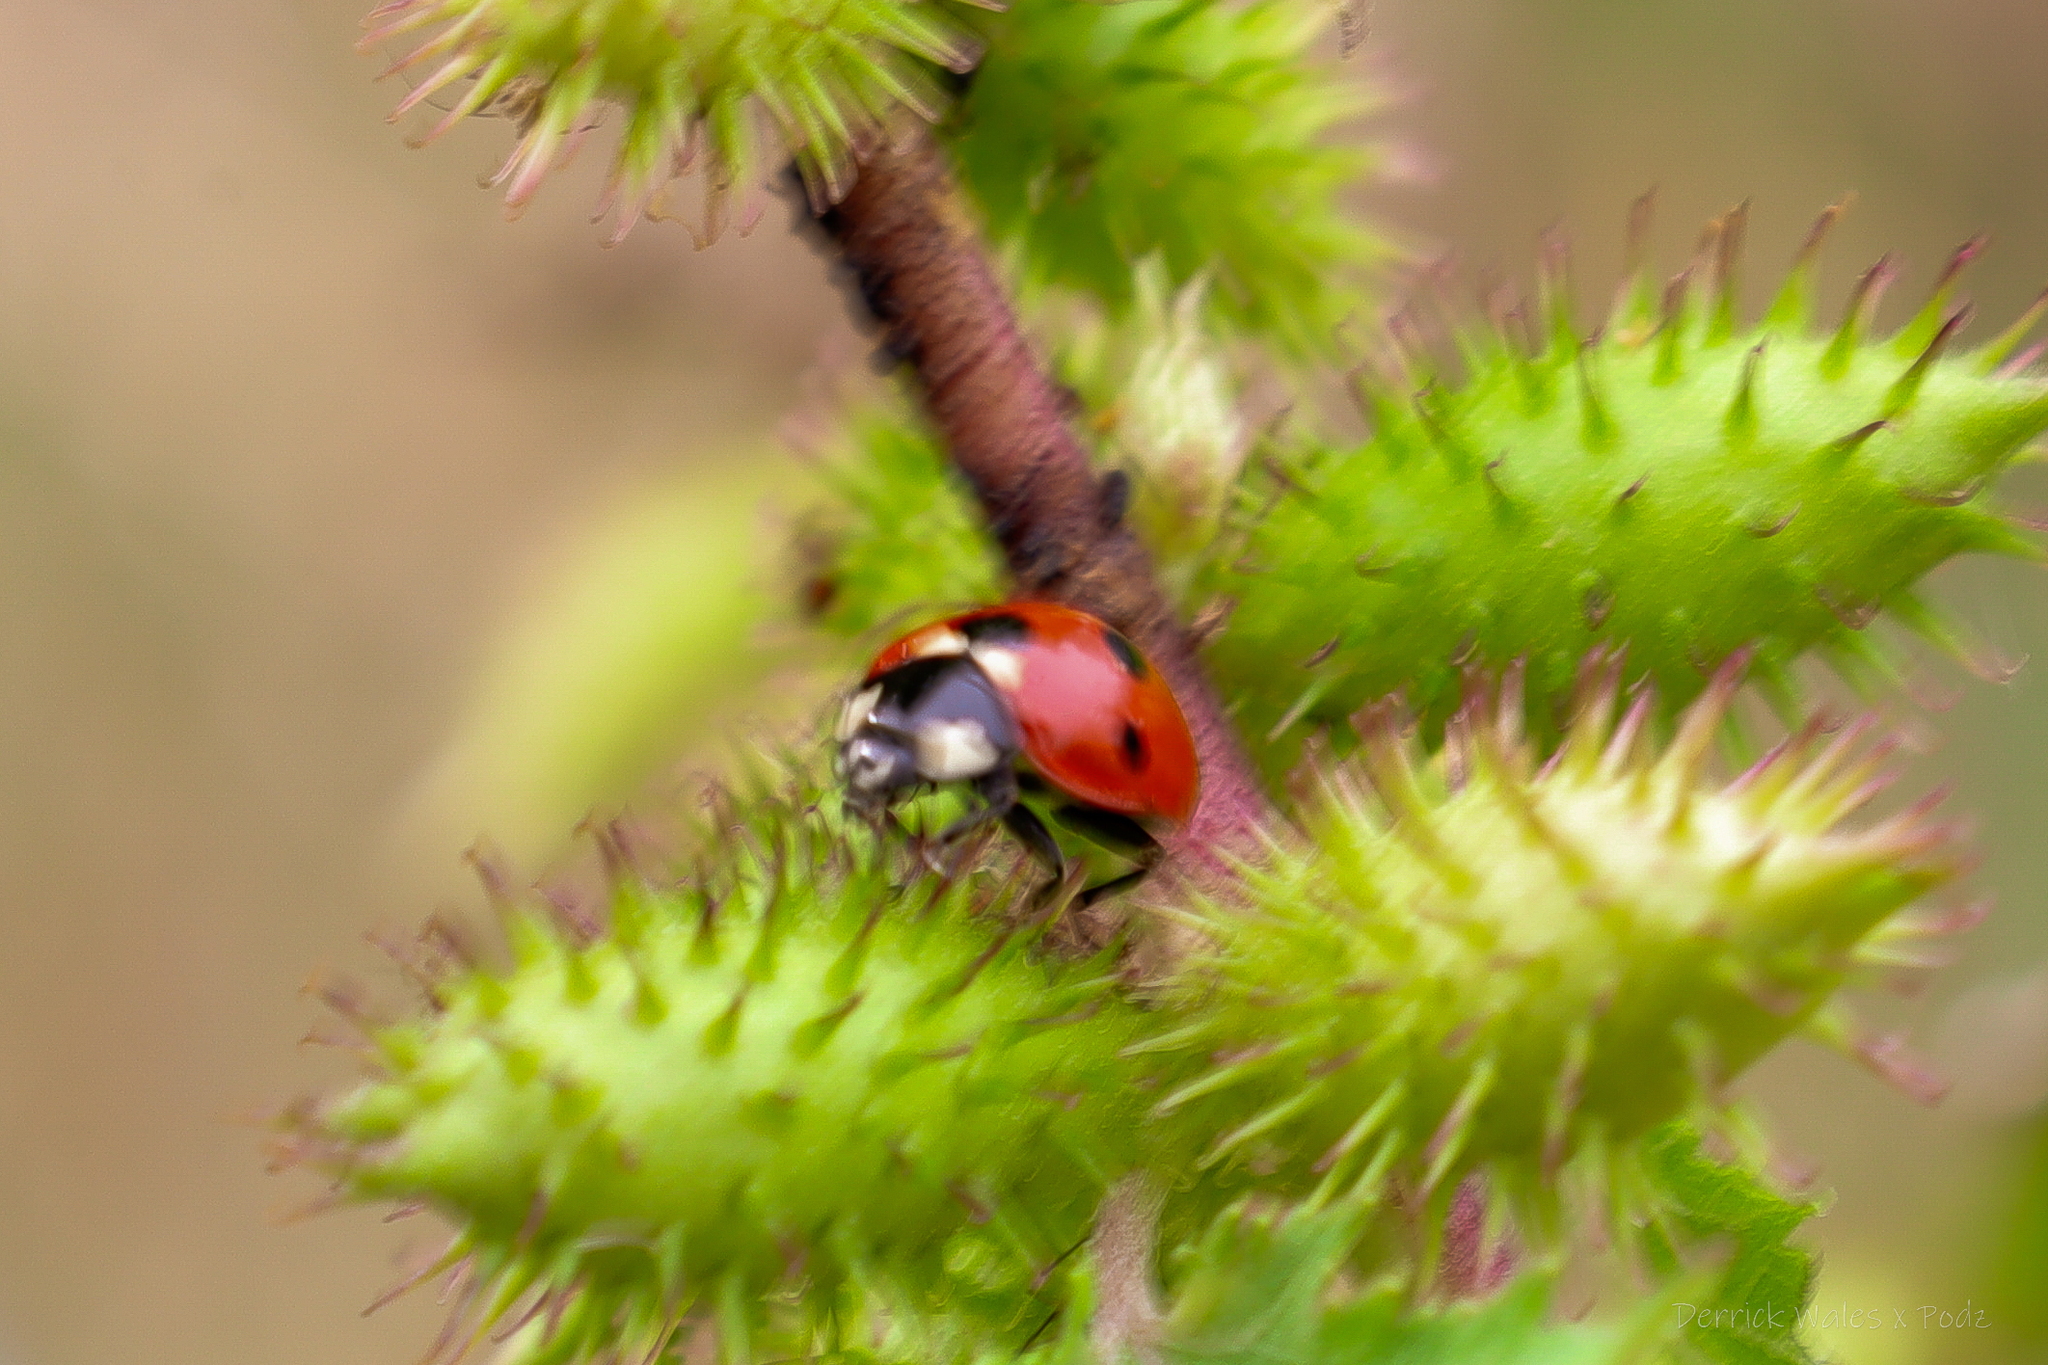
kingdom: Animalia
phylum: Arthropoda
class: Insecta
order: Coleoptera
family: Coccinellidae
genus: Coccinella
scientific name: Coccinella septempunctata
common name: Sevenspotted lady beetle
